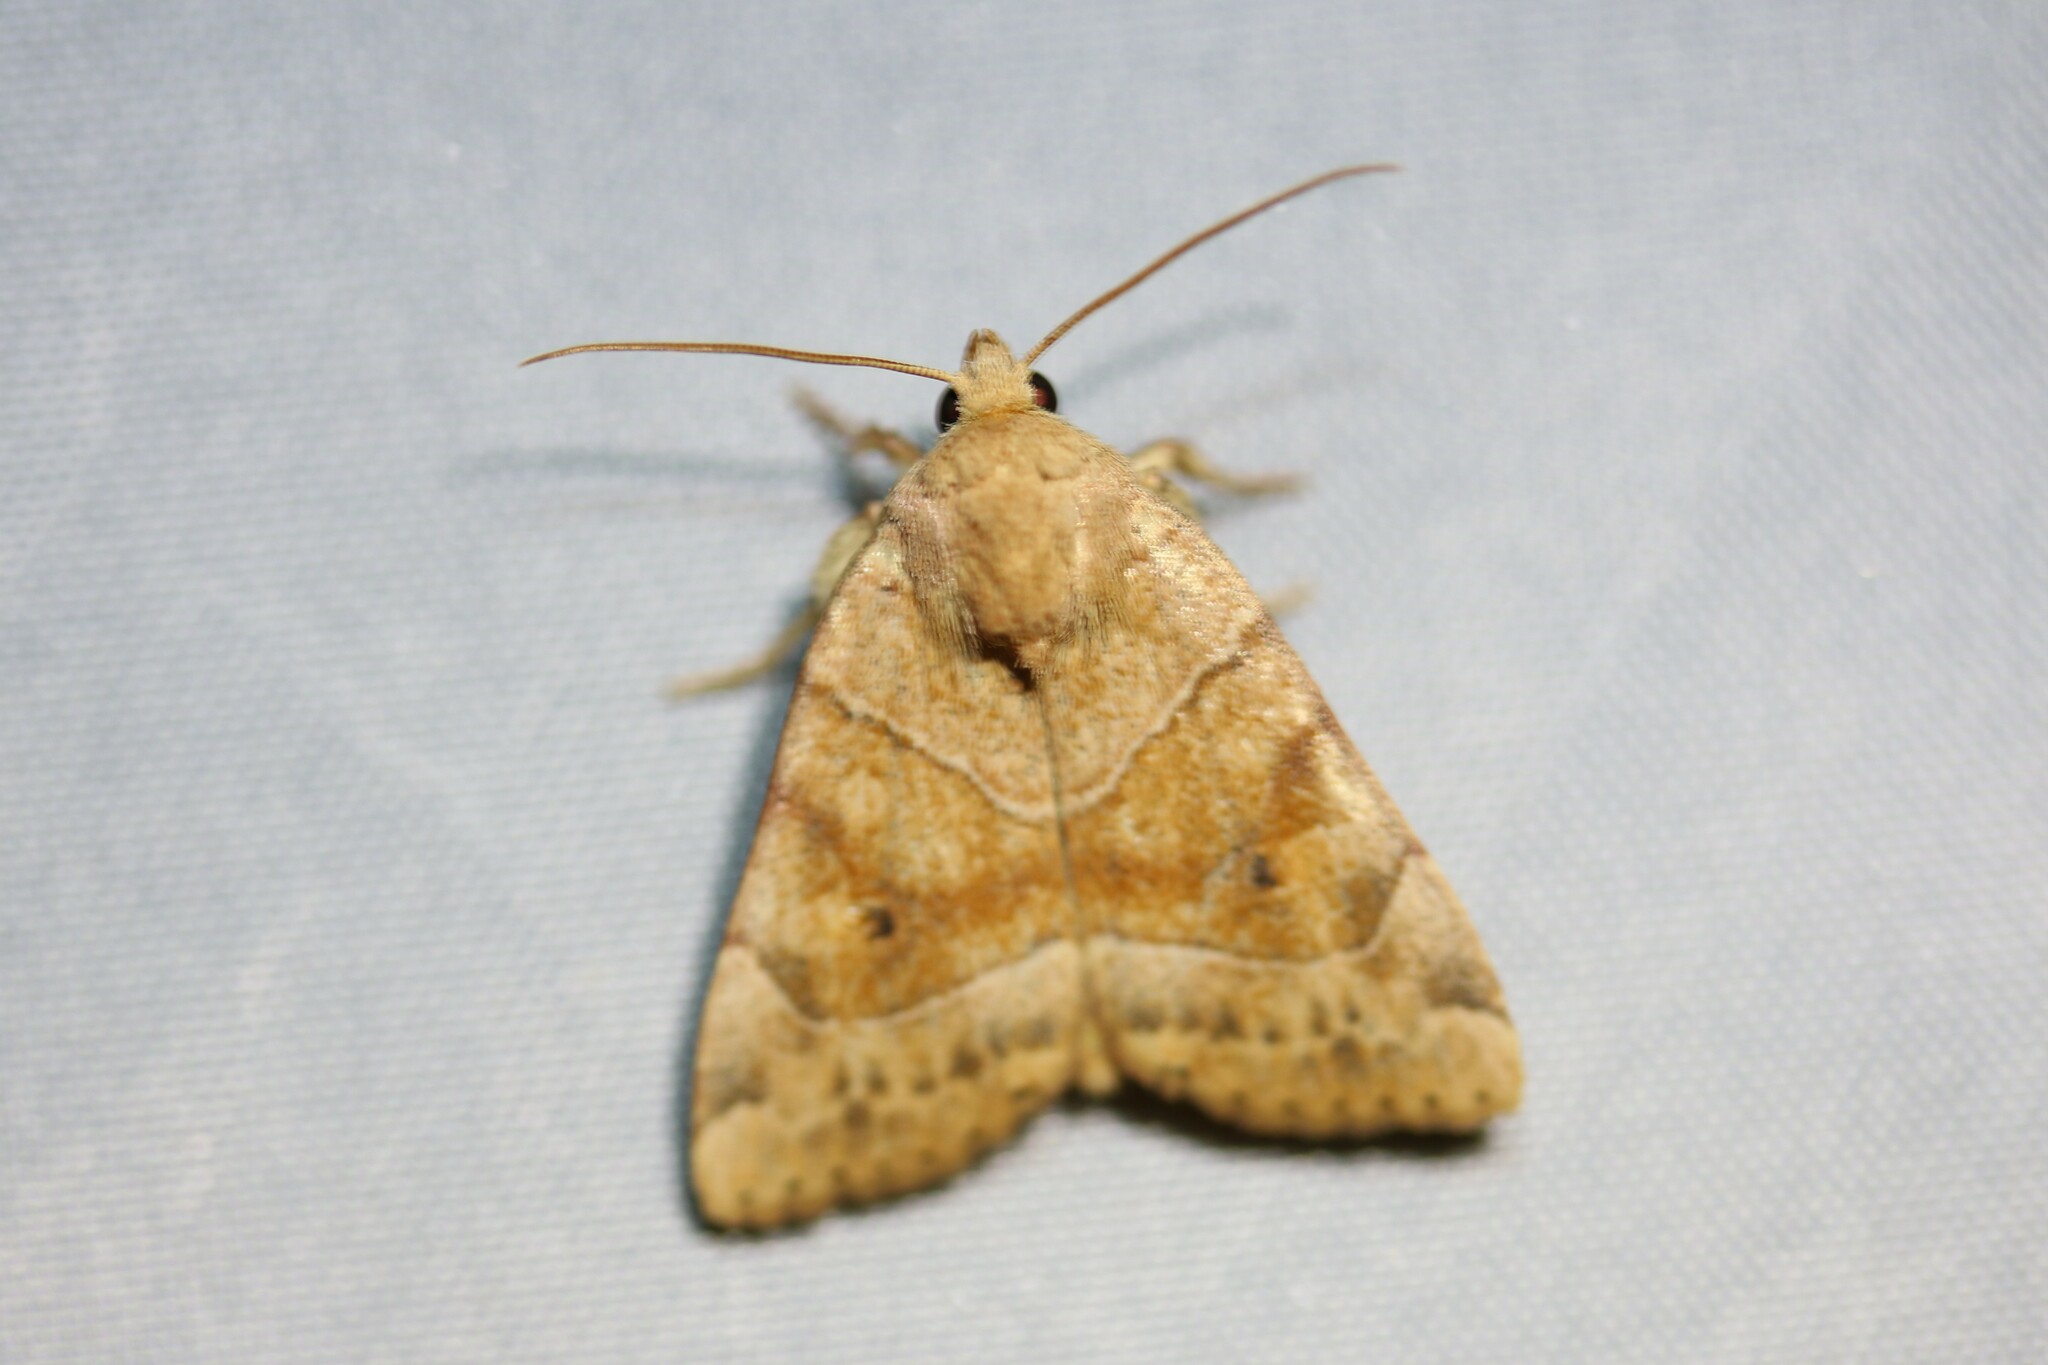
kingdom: Animalia
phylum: Arthropoda
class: Insecta
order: Lepidoptera
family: Noctuidae
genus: Cosmia
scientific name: Cosmia trapezina
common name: Dun-bar
